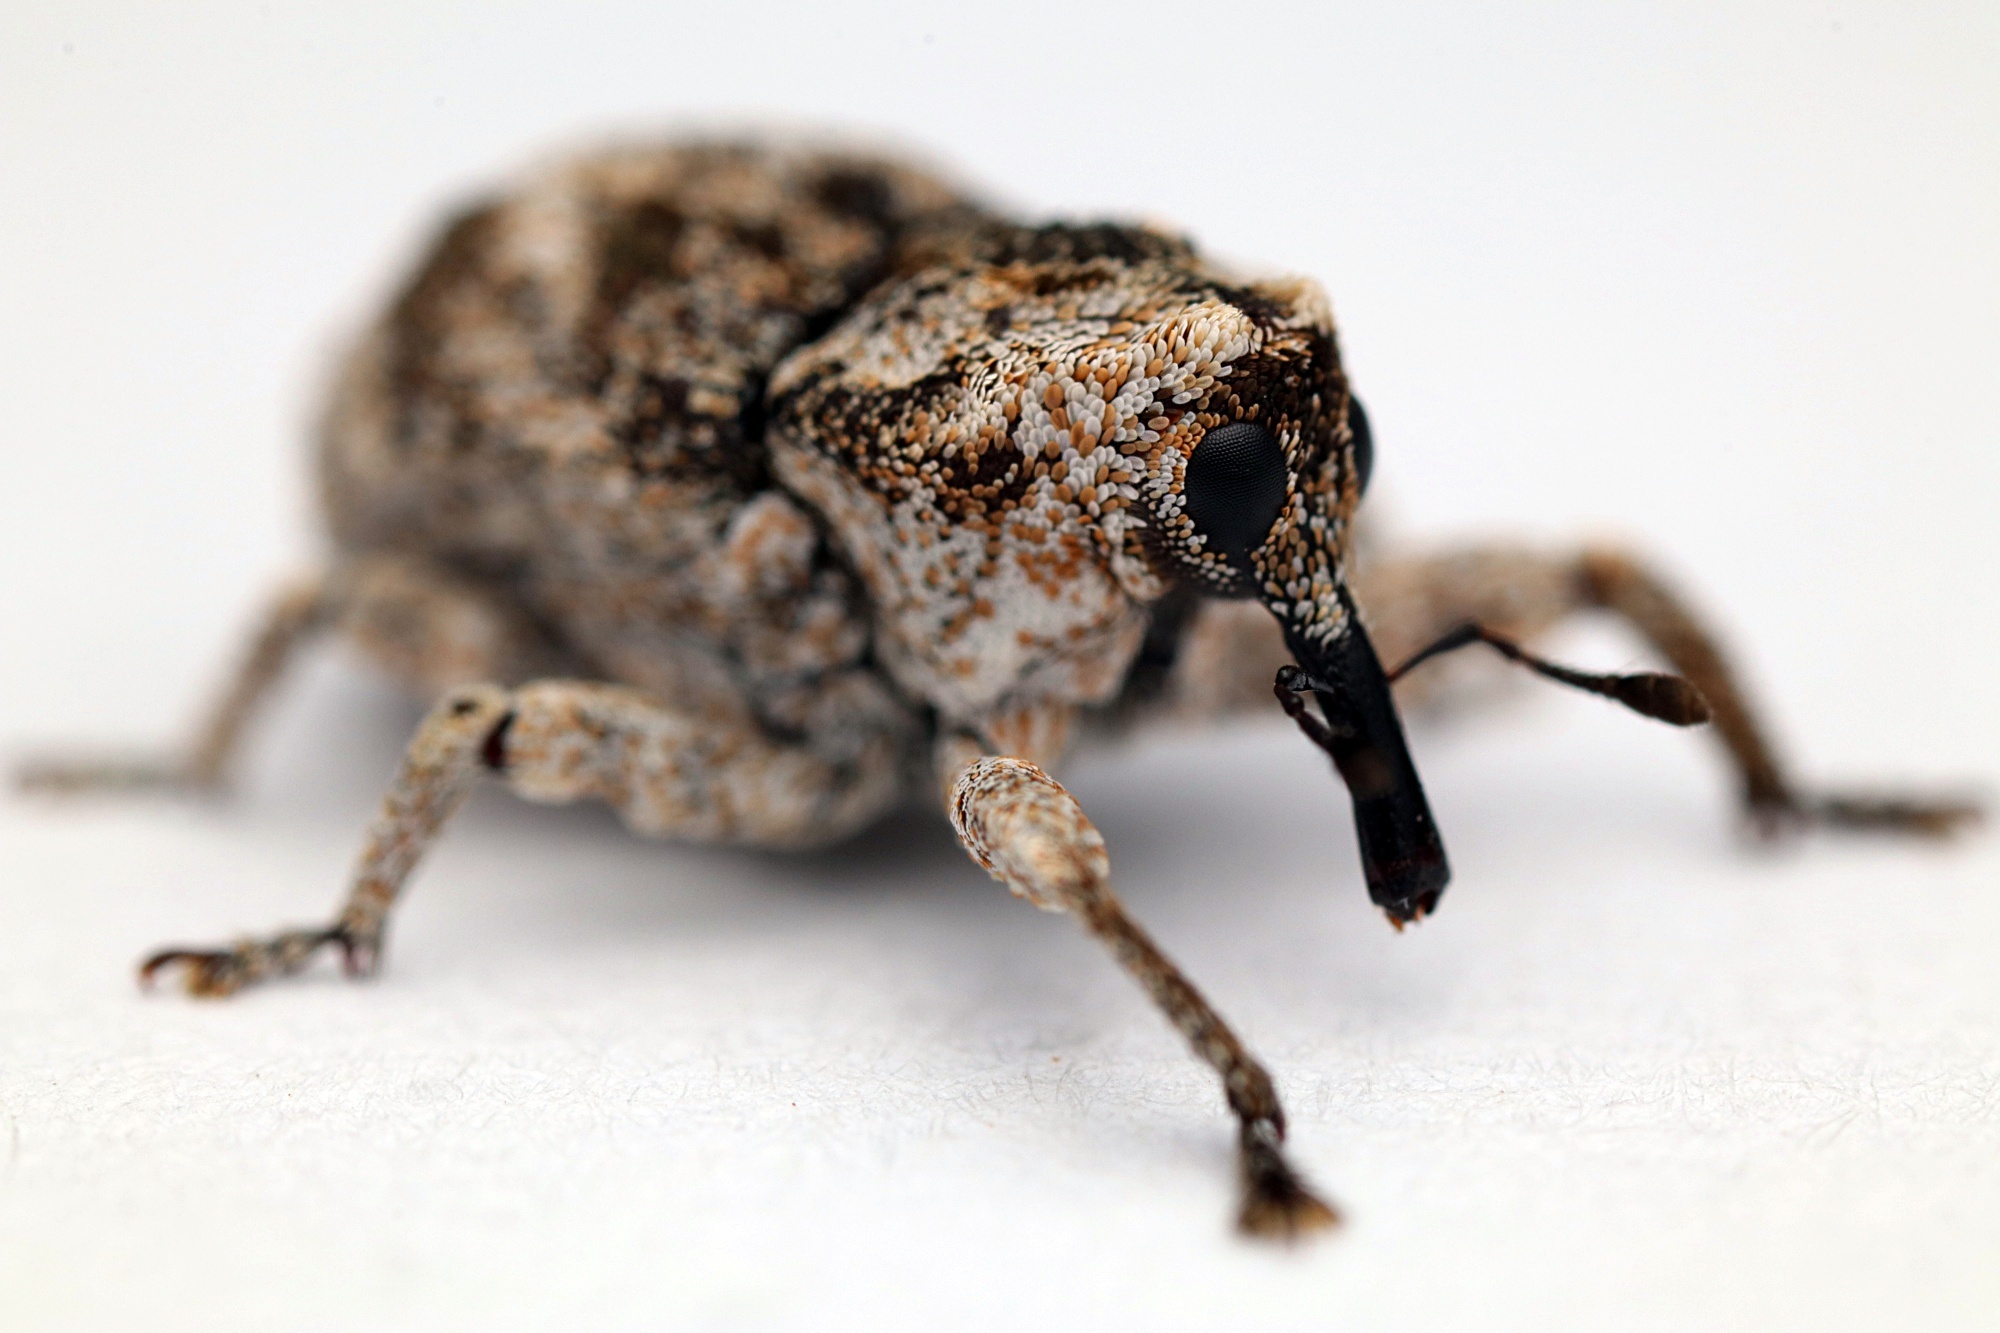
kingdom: Animalia
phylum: Arthropoda
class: Insecta
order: Coleoptera
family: Curculionidae
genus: Euthyrhinus
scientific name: Euthyrhinus squamiger
